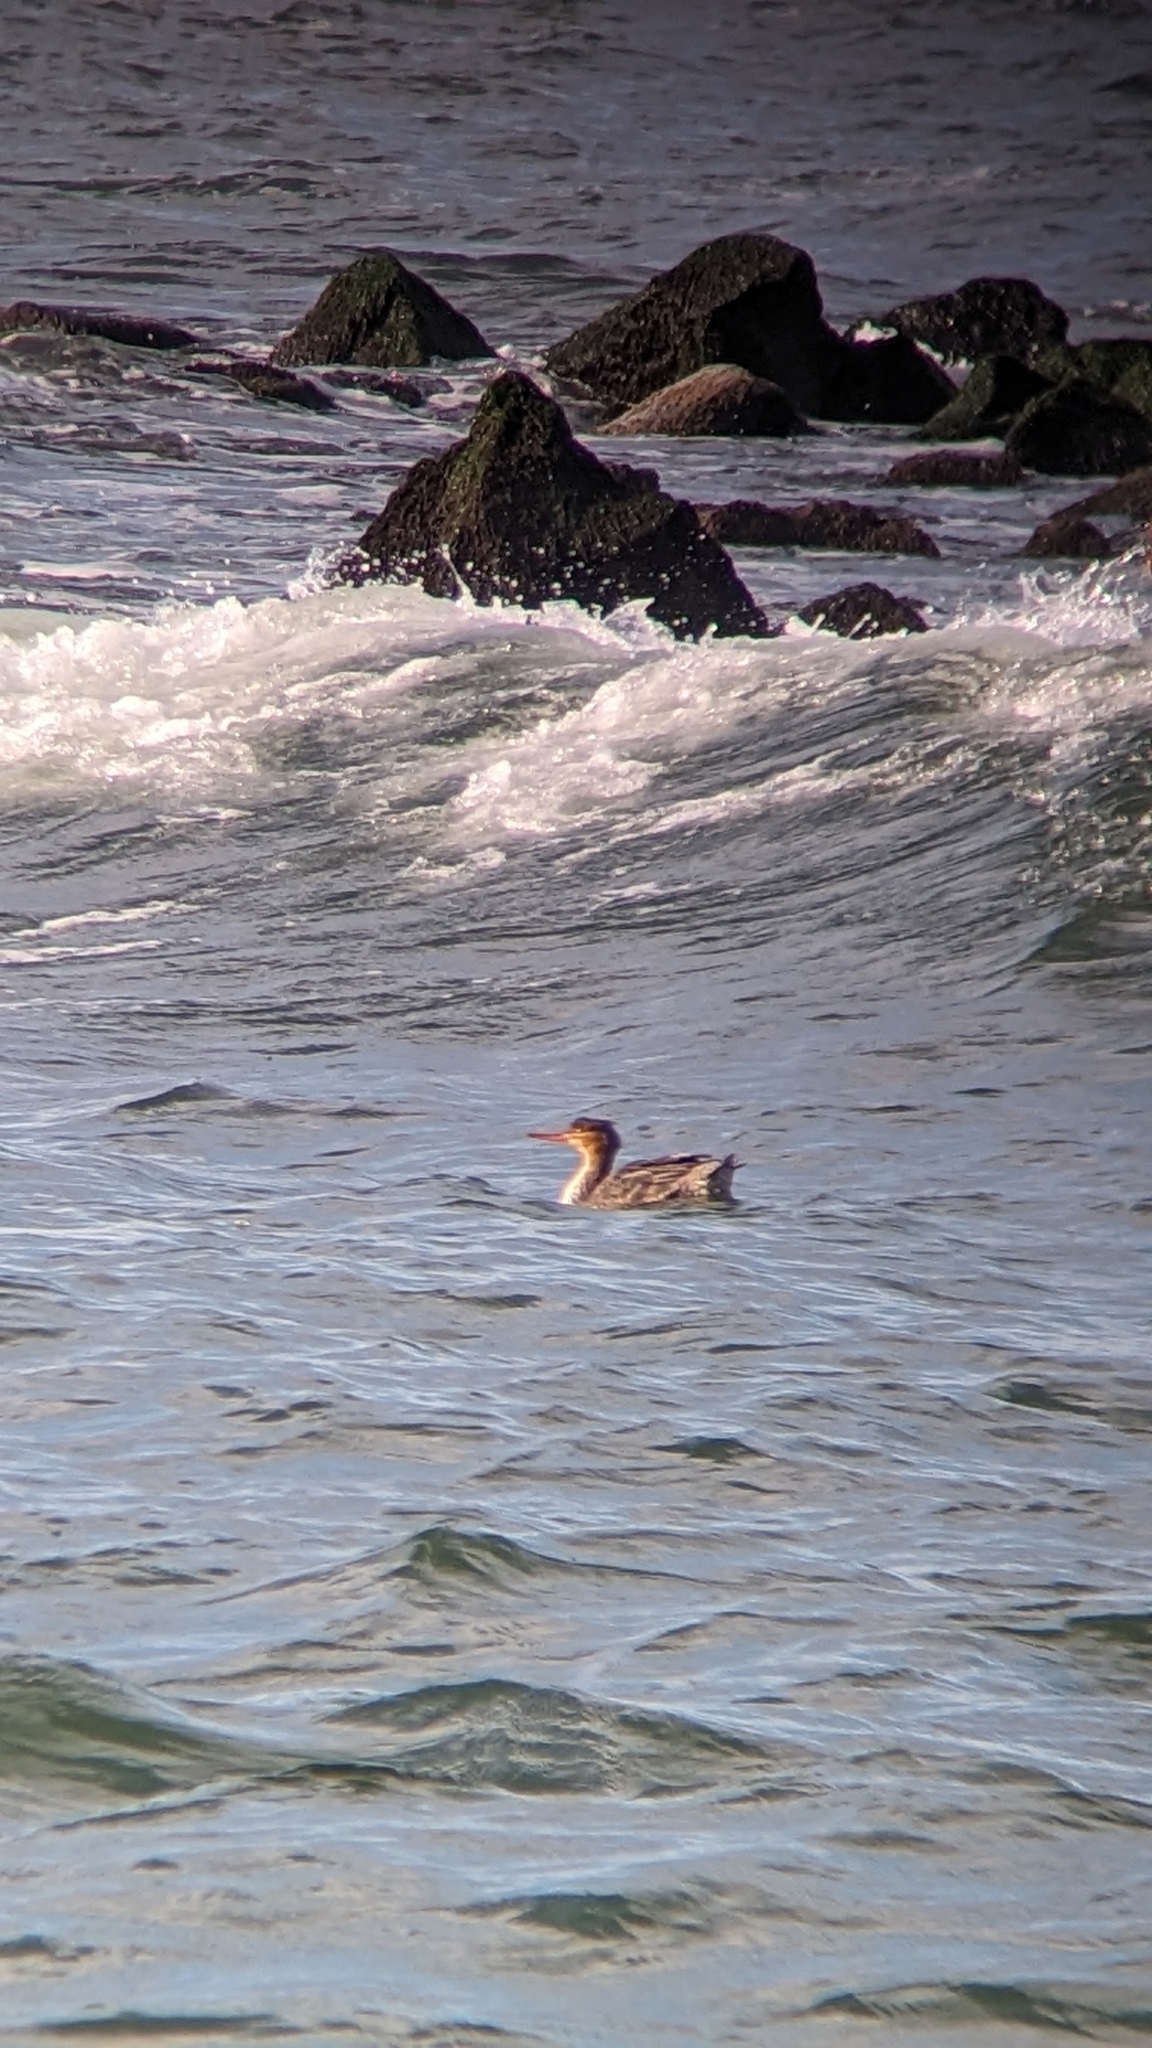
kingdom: Animalia
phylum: Chordata
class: Aves
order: Anseriformes
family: Anatidae
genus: Mergus
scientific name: Mergus serrator
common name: Red-breasted merganser
